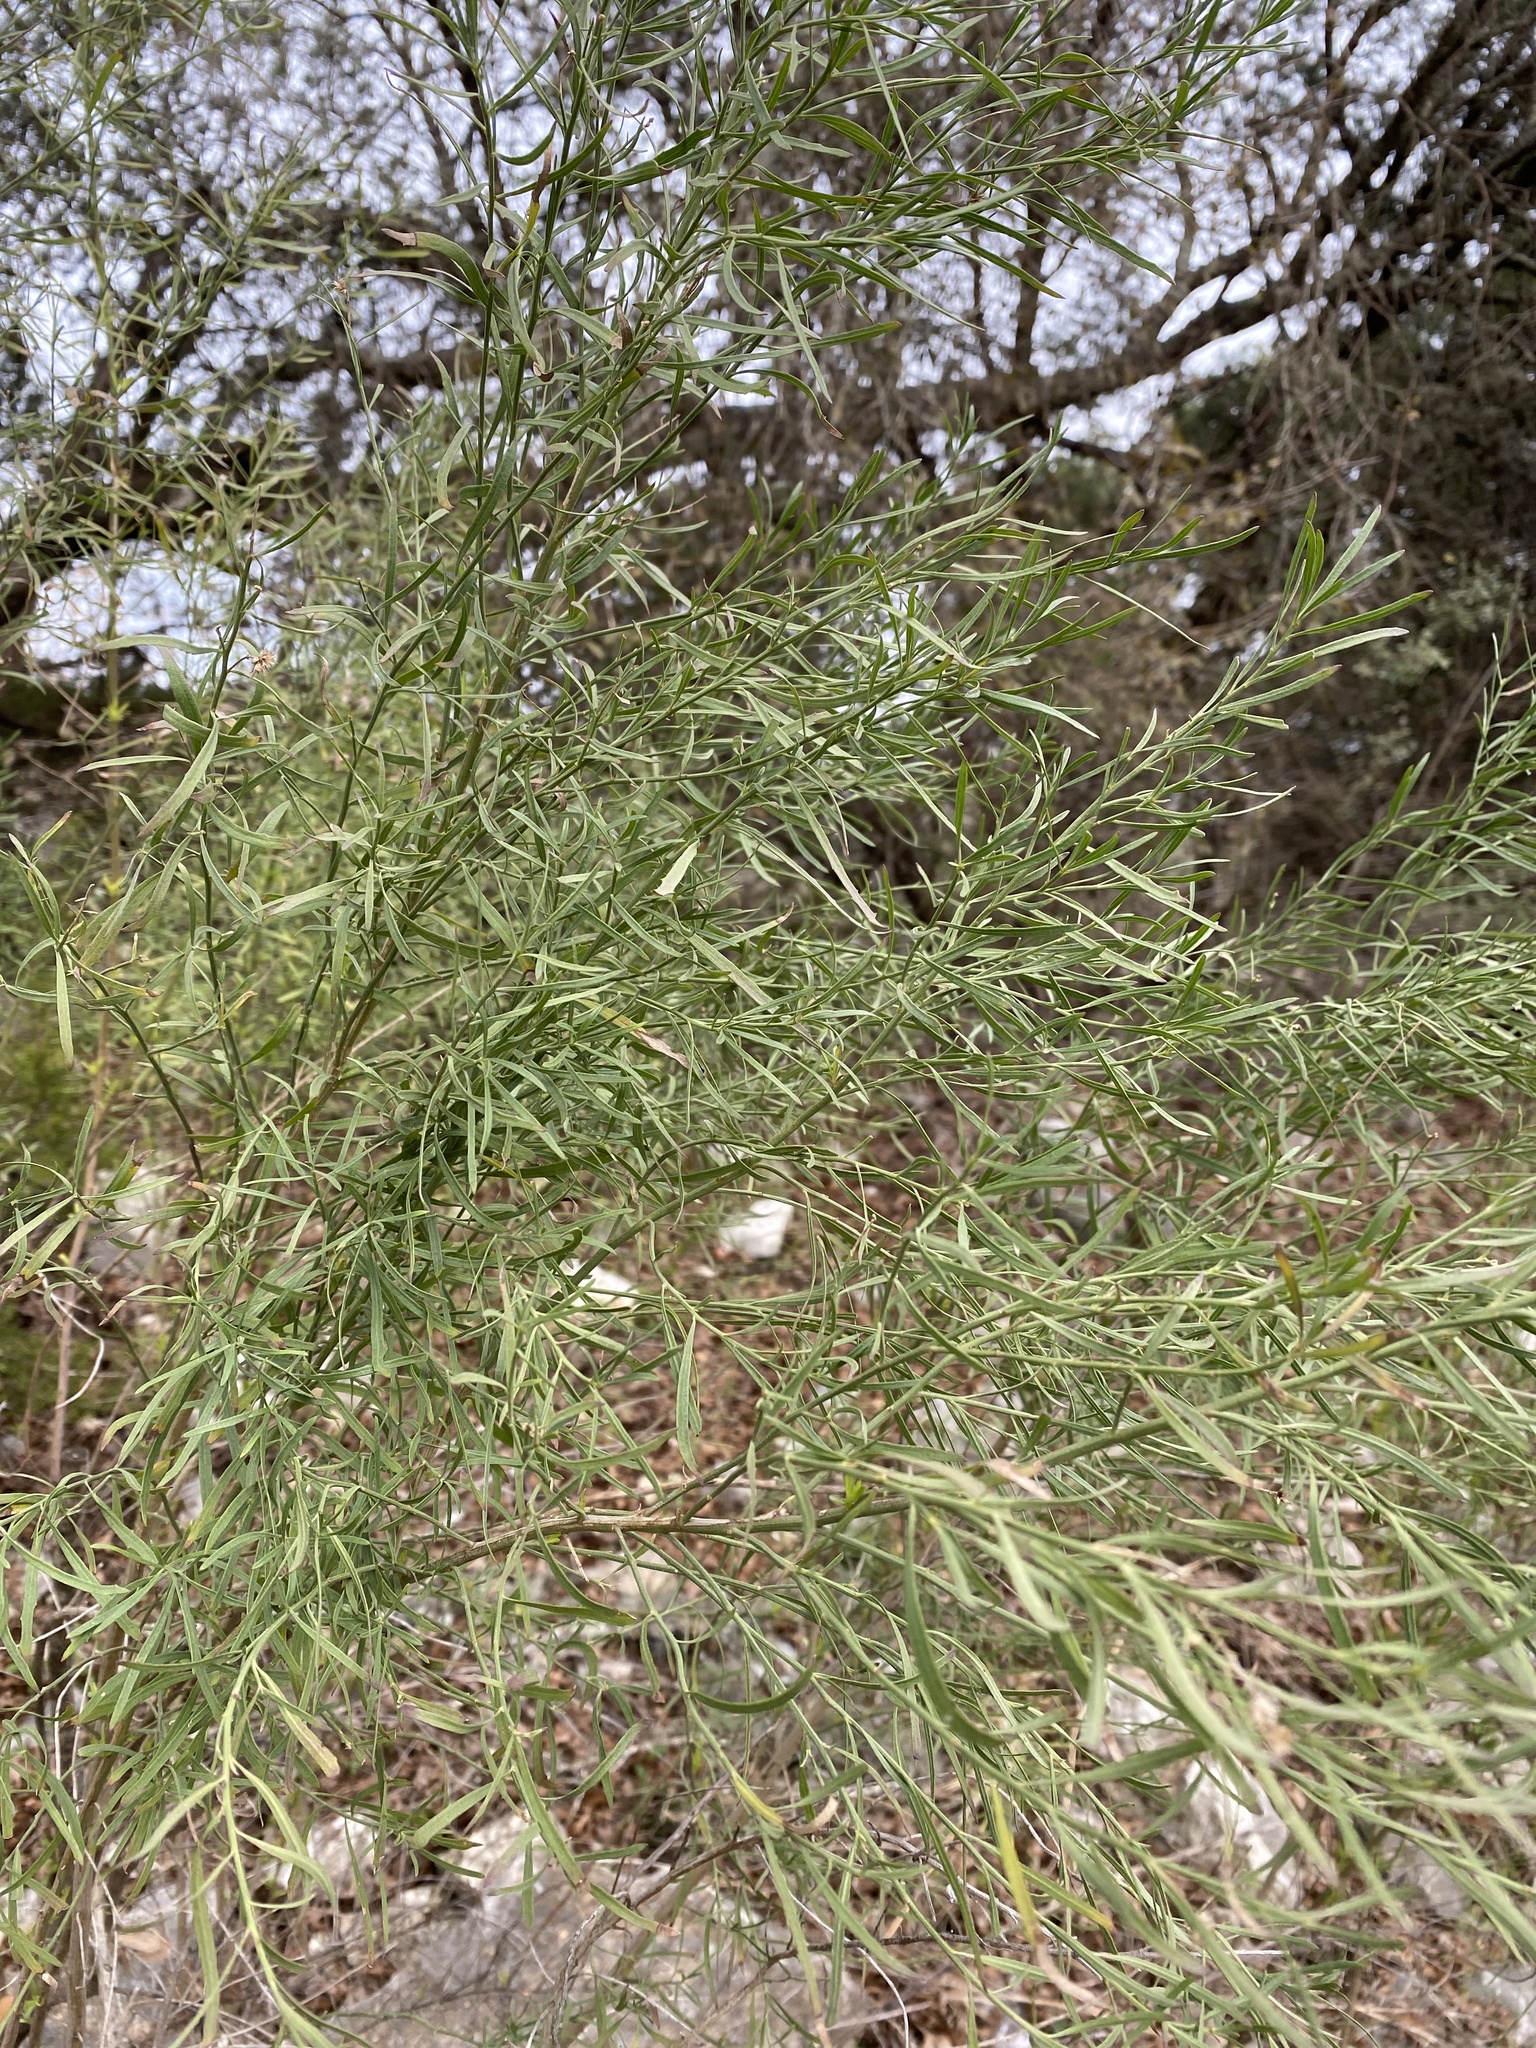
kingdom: Plantae
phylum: Tracheophyta
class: Magnoliopsida
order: Asterales
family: Asteraceae
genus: Baccharis
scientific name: Baccharis neglecta
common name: Roosevelt-weed
